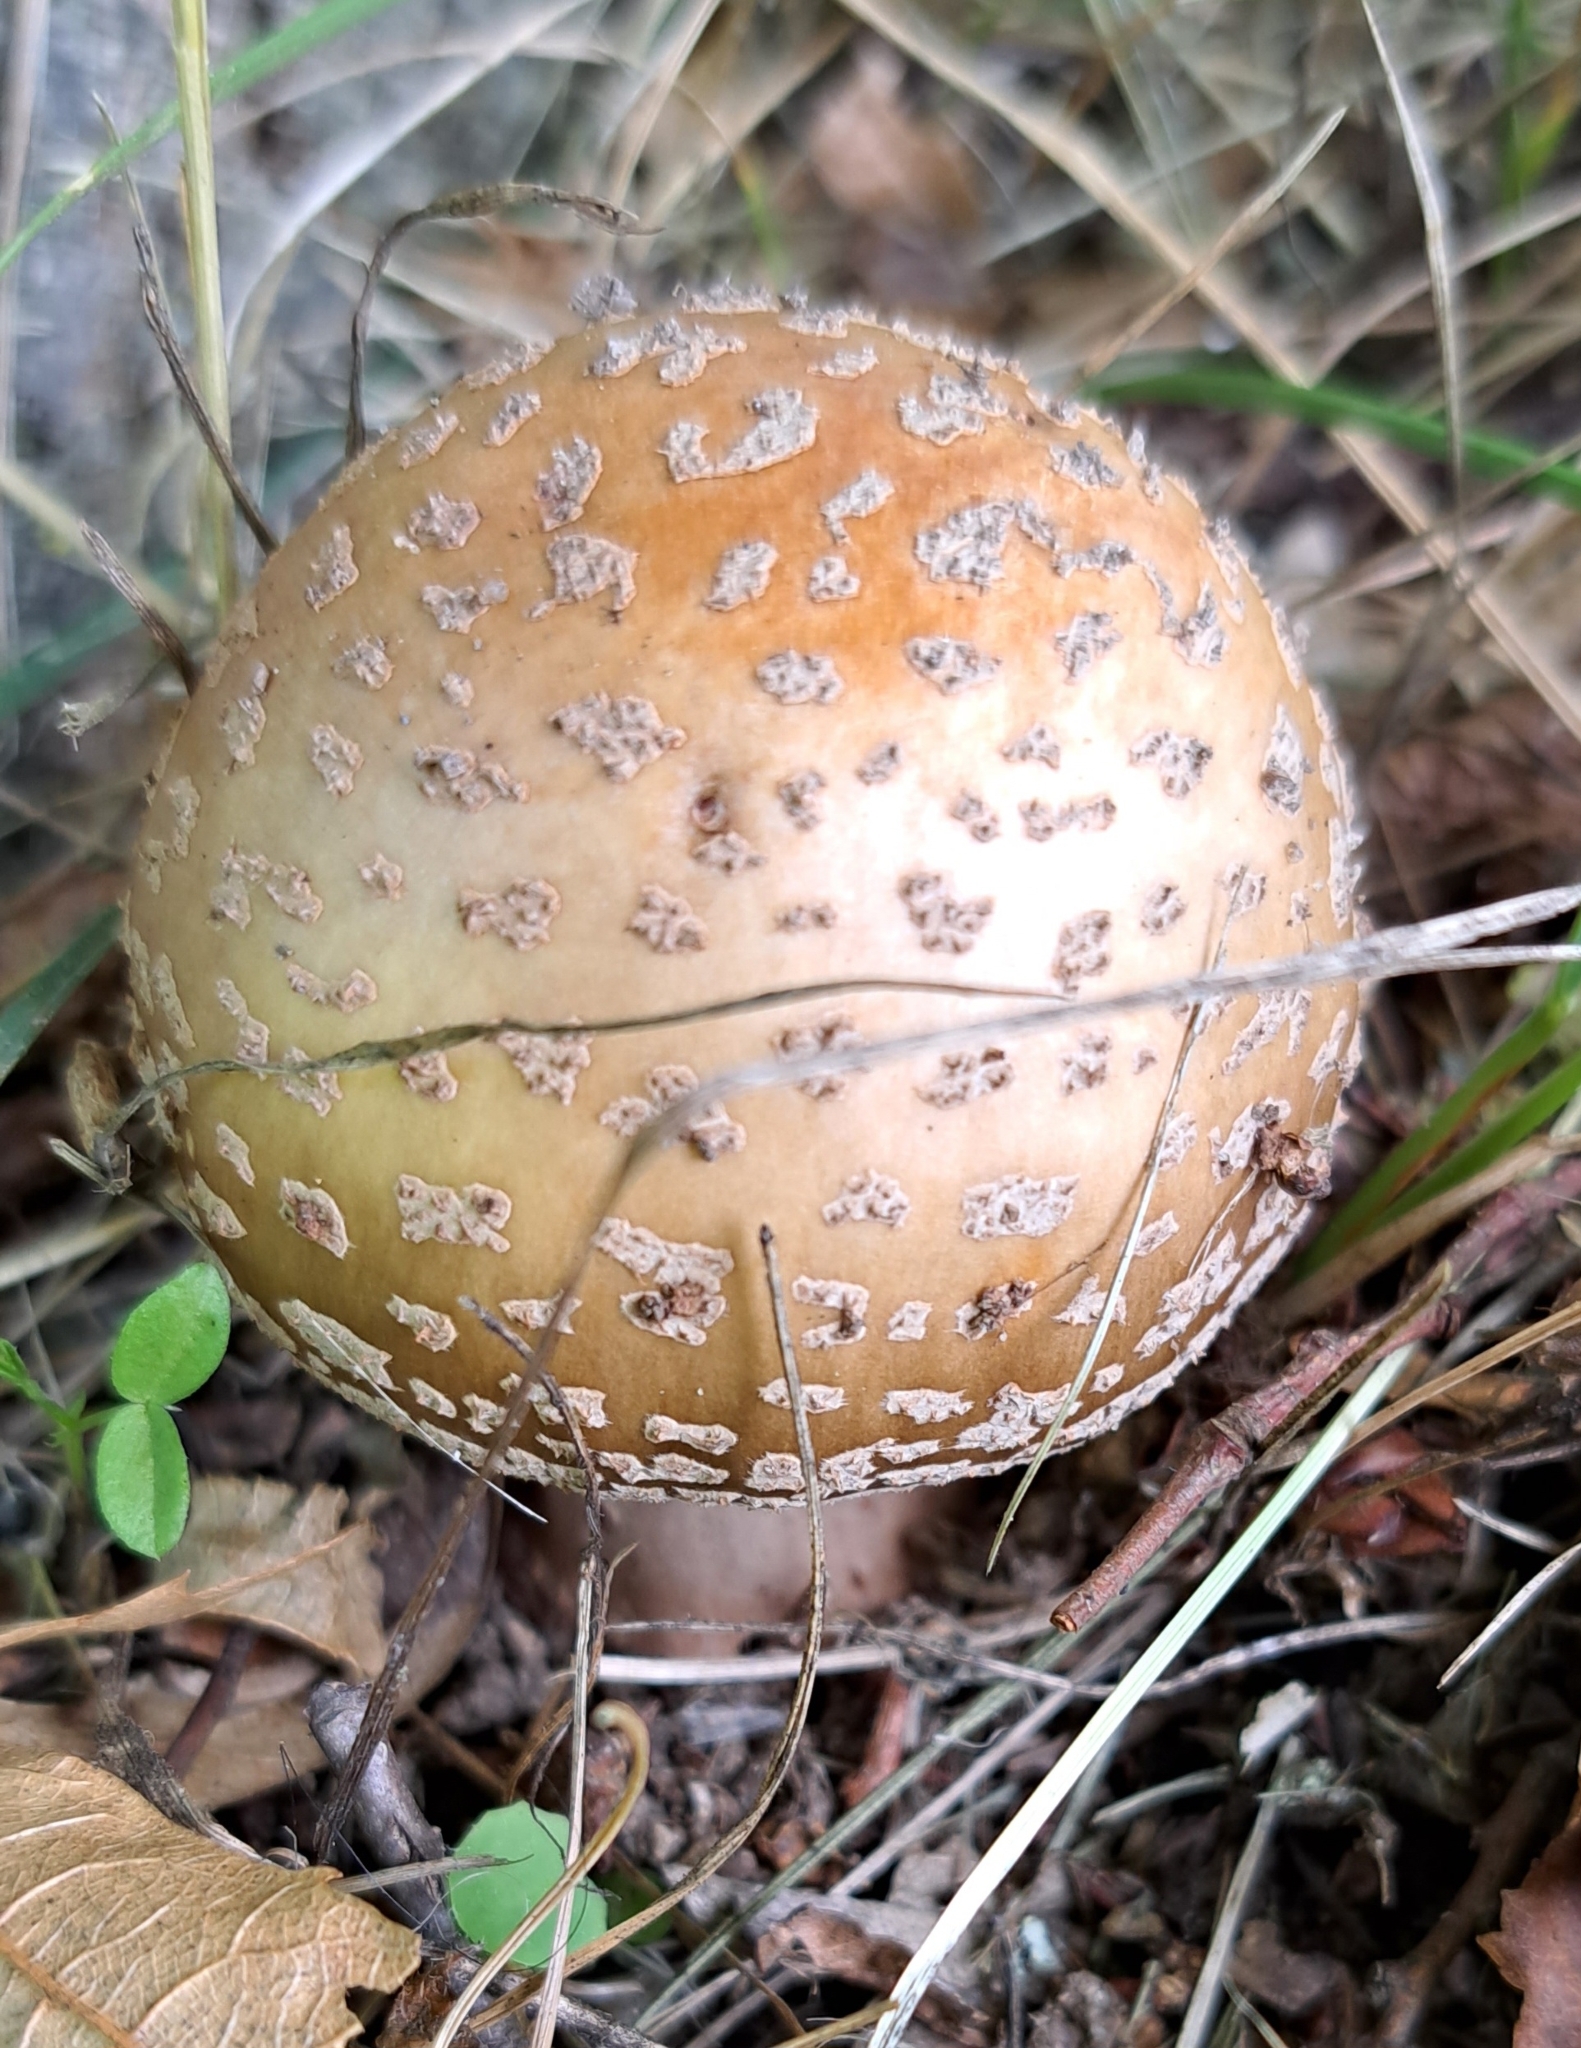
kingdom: Fungi
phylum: Basidiomycota
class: Agaricomycetes
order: Agaricales
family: Amanitaceae
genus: Amanita
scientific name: Amanita rubescens
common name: Blusher
